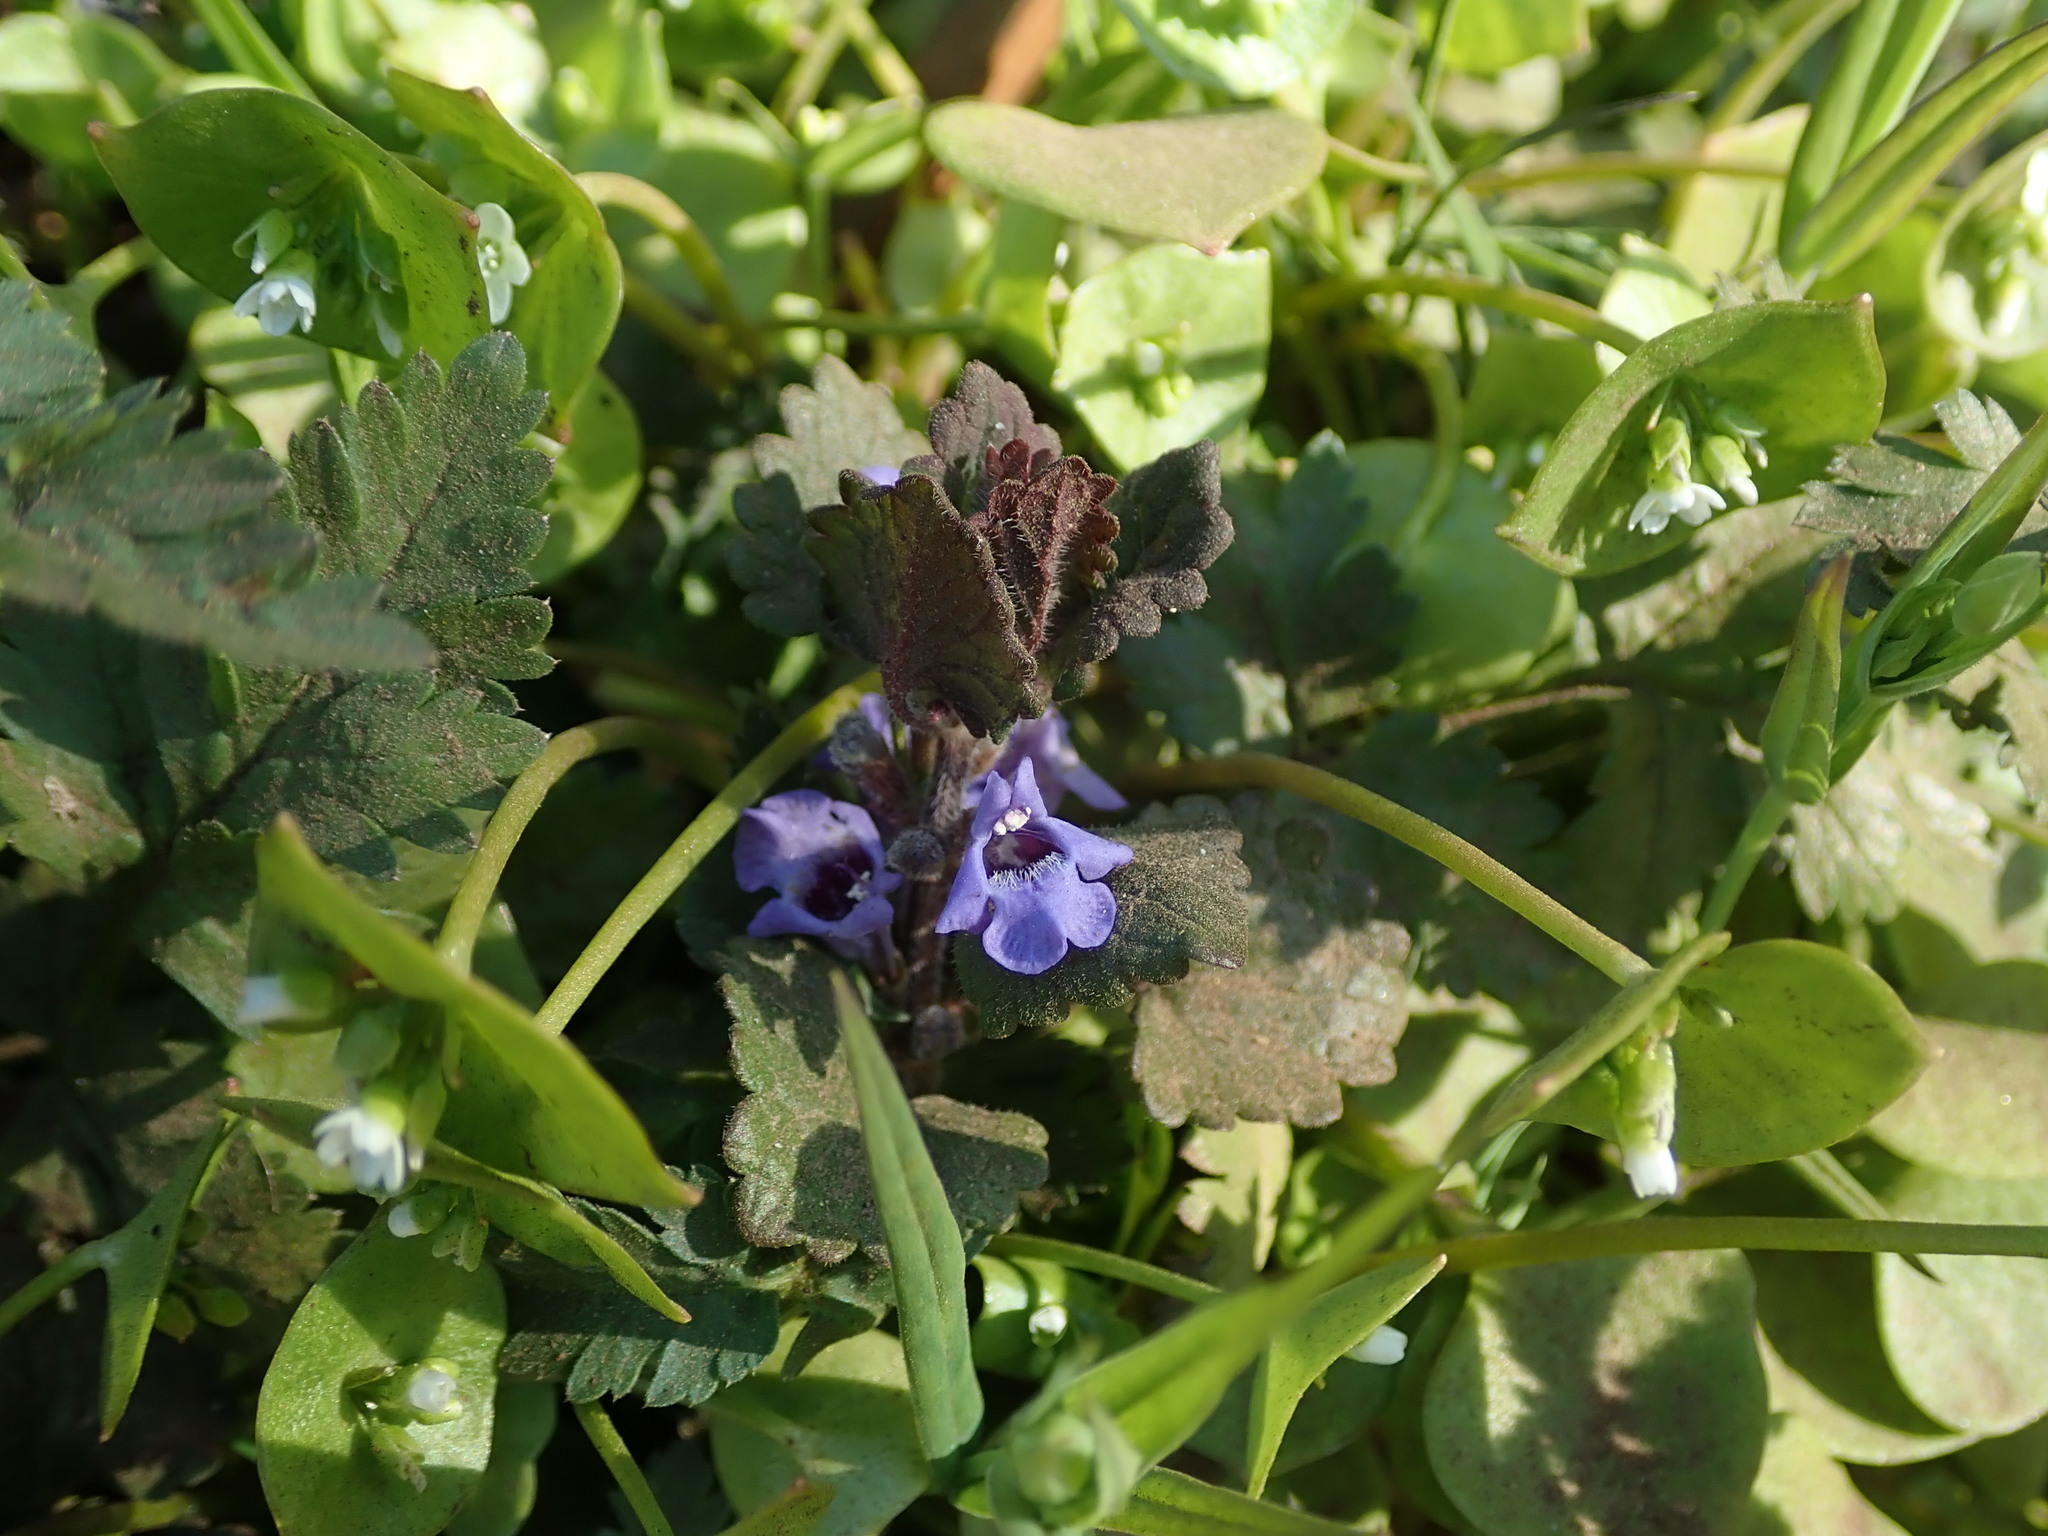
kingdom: Plantae
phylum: Tracheophyta
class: Magnoliopsida
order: Lamiales
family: Lamiaceae
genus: Glechoma
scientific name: Glechoma hederacea
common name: Ground ivy
